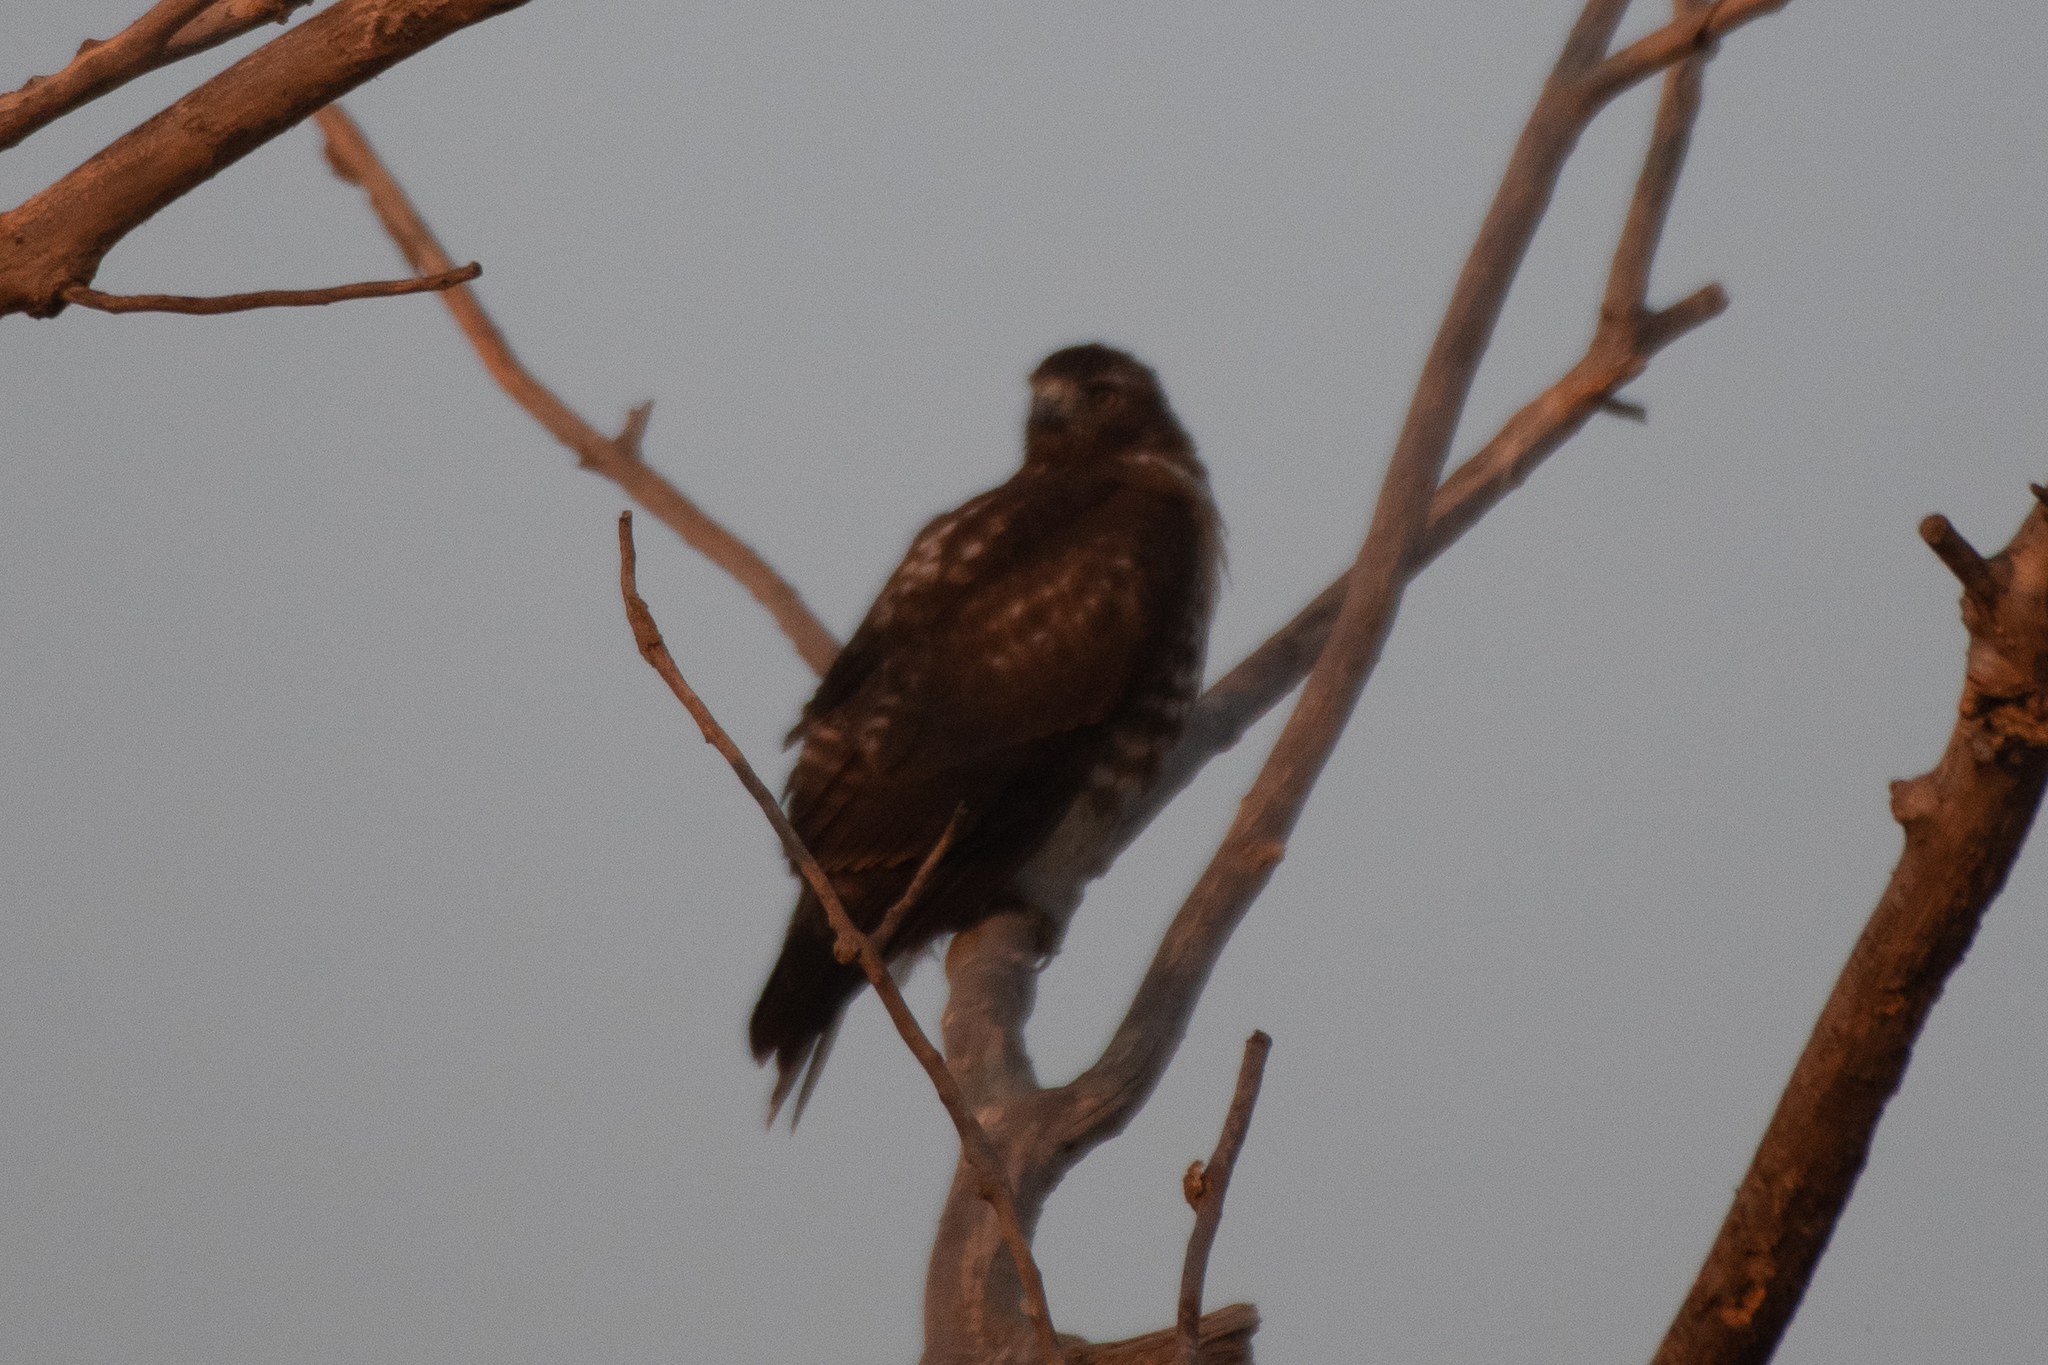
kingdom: Animalia
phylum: Chordata
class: Aves
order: Accipitriformes
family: Accipitridae
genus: Buteo
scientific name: Buteo jamaicensis
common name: Red-tailed hawk
